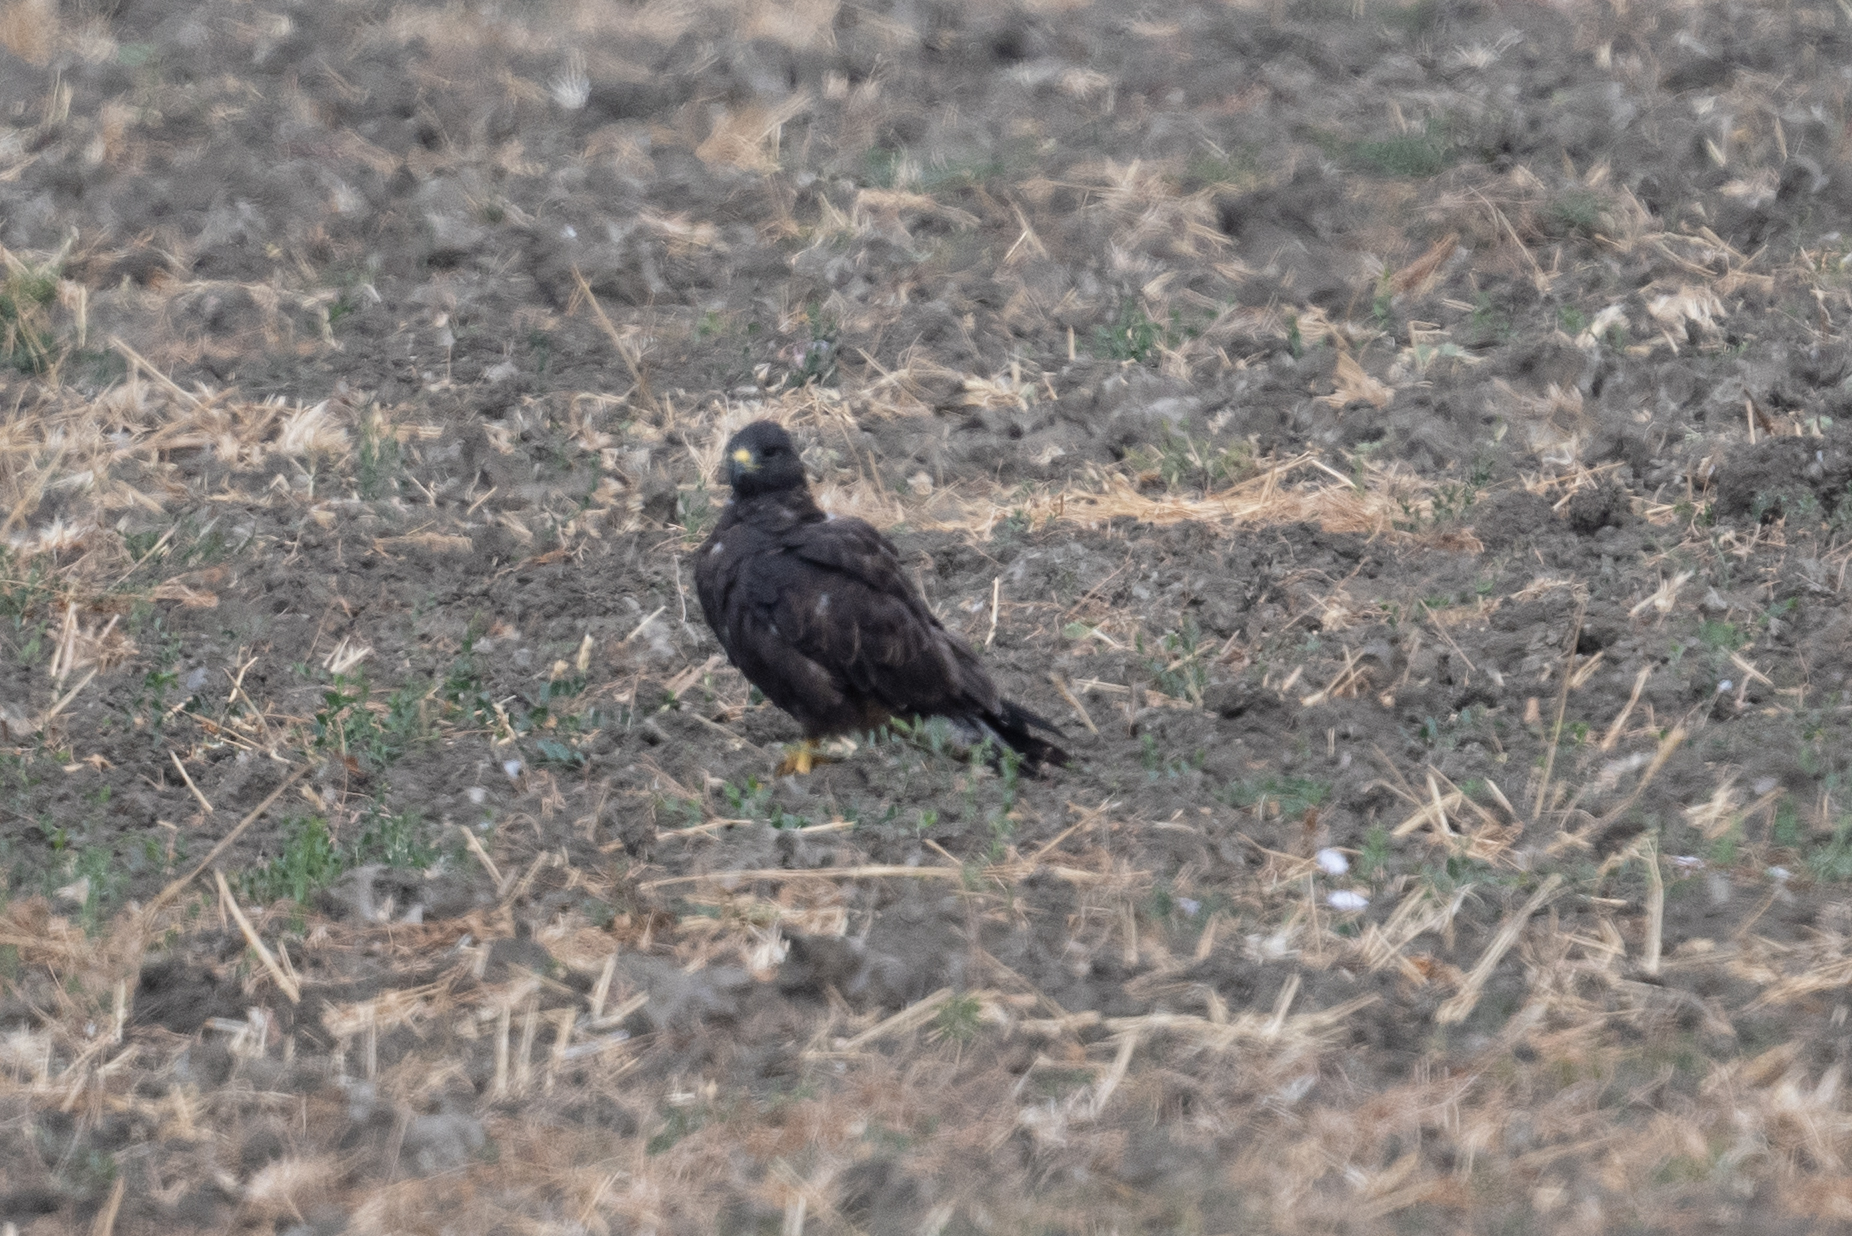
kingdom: Animalia
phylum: Chordata
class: Aves
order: Accipitriformes
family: Accipitridae
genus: Buteo
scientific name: Buteo swainsoni
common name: Swainson's hawk
